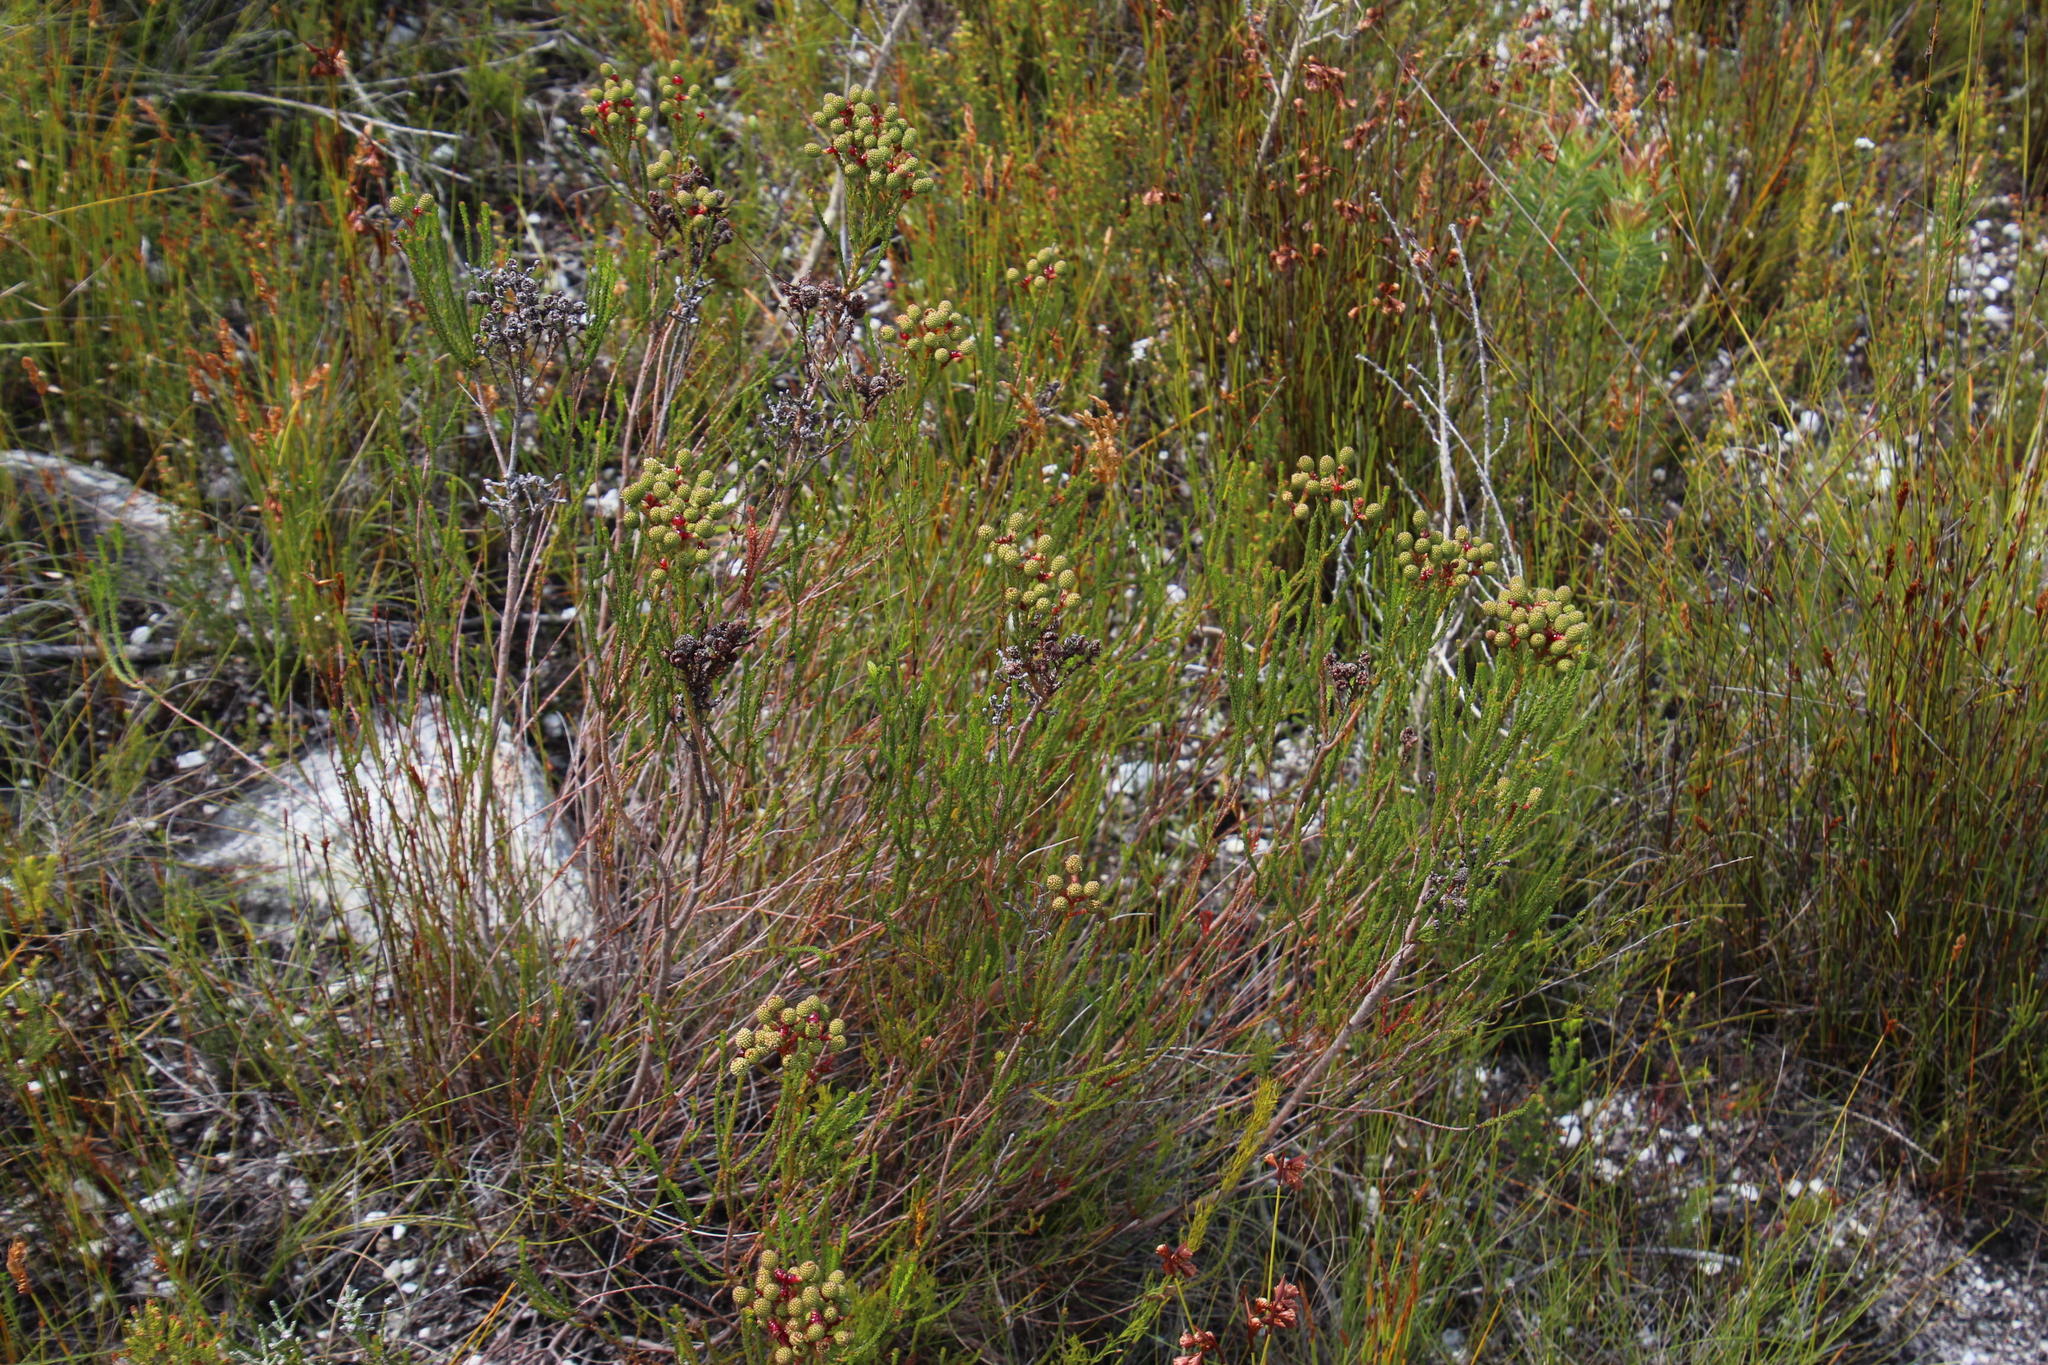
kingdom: Plantae
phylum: Tracheophyta
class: Magnoliopsida
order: Bruniales
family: Bruniaceae
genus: Berzelia
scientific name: Berzelia abrotanoides
